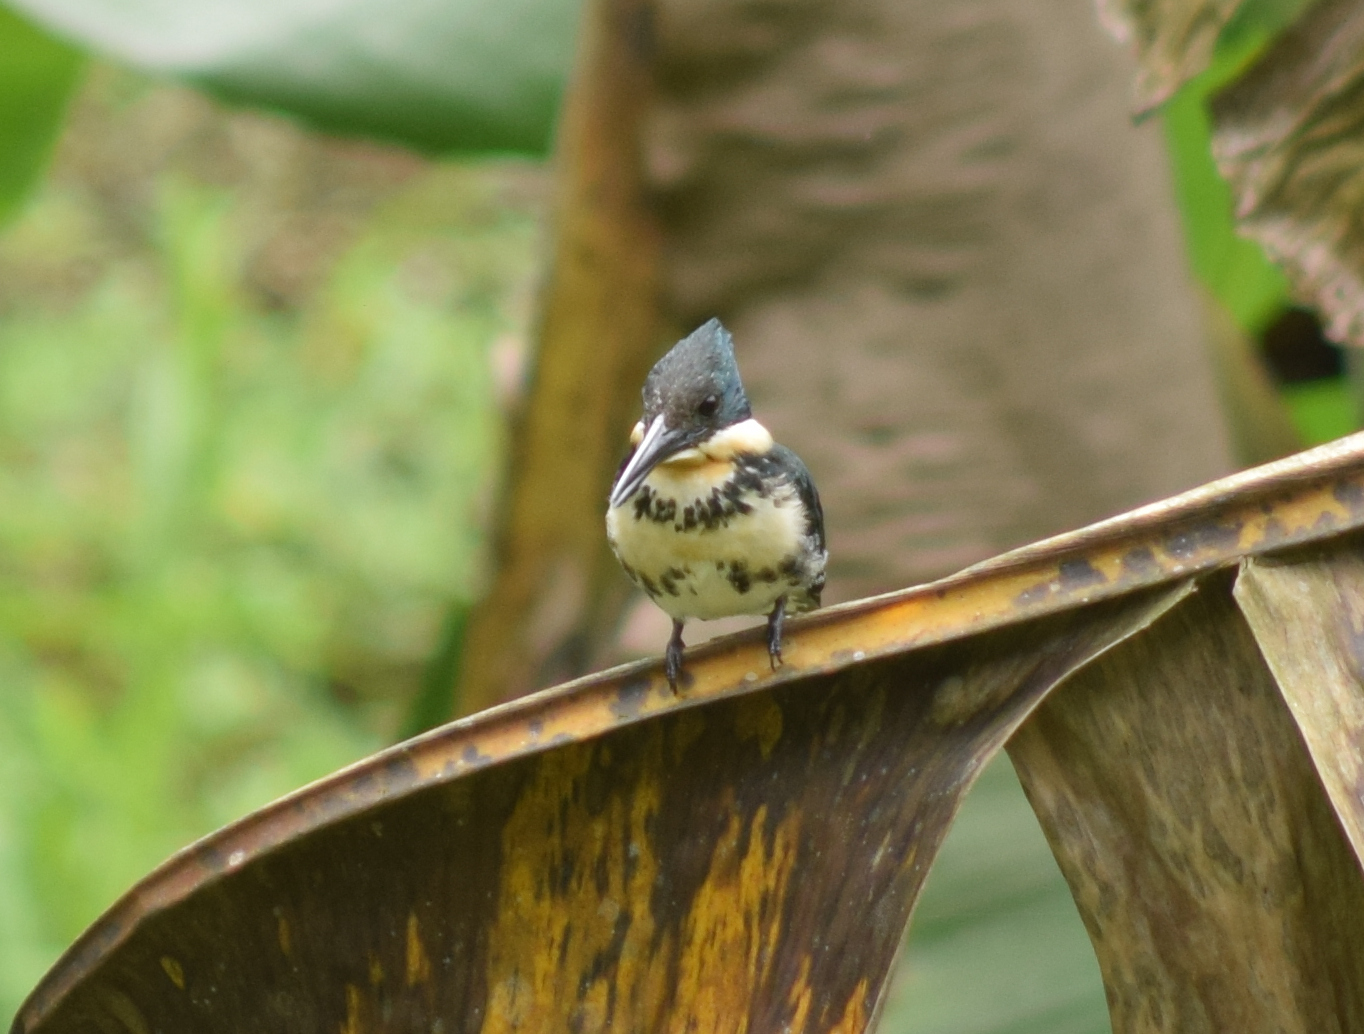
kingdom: Animalia
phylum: Chordata
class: Aves
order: Coraciiformes
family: Alcedinidae
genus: Chloroceryle
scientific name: Chloroceryle americana
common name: Green kingfisher
